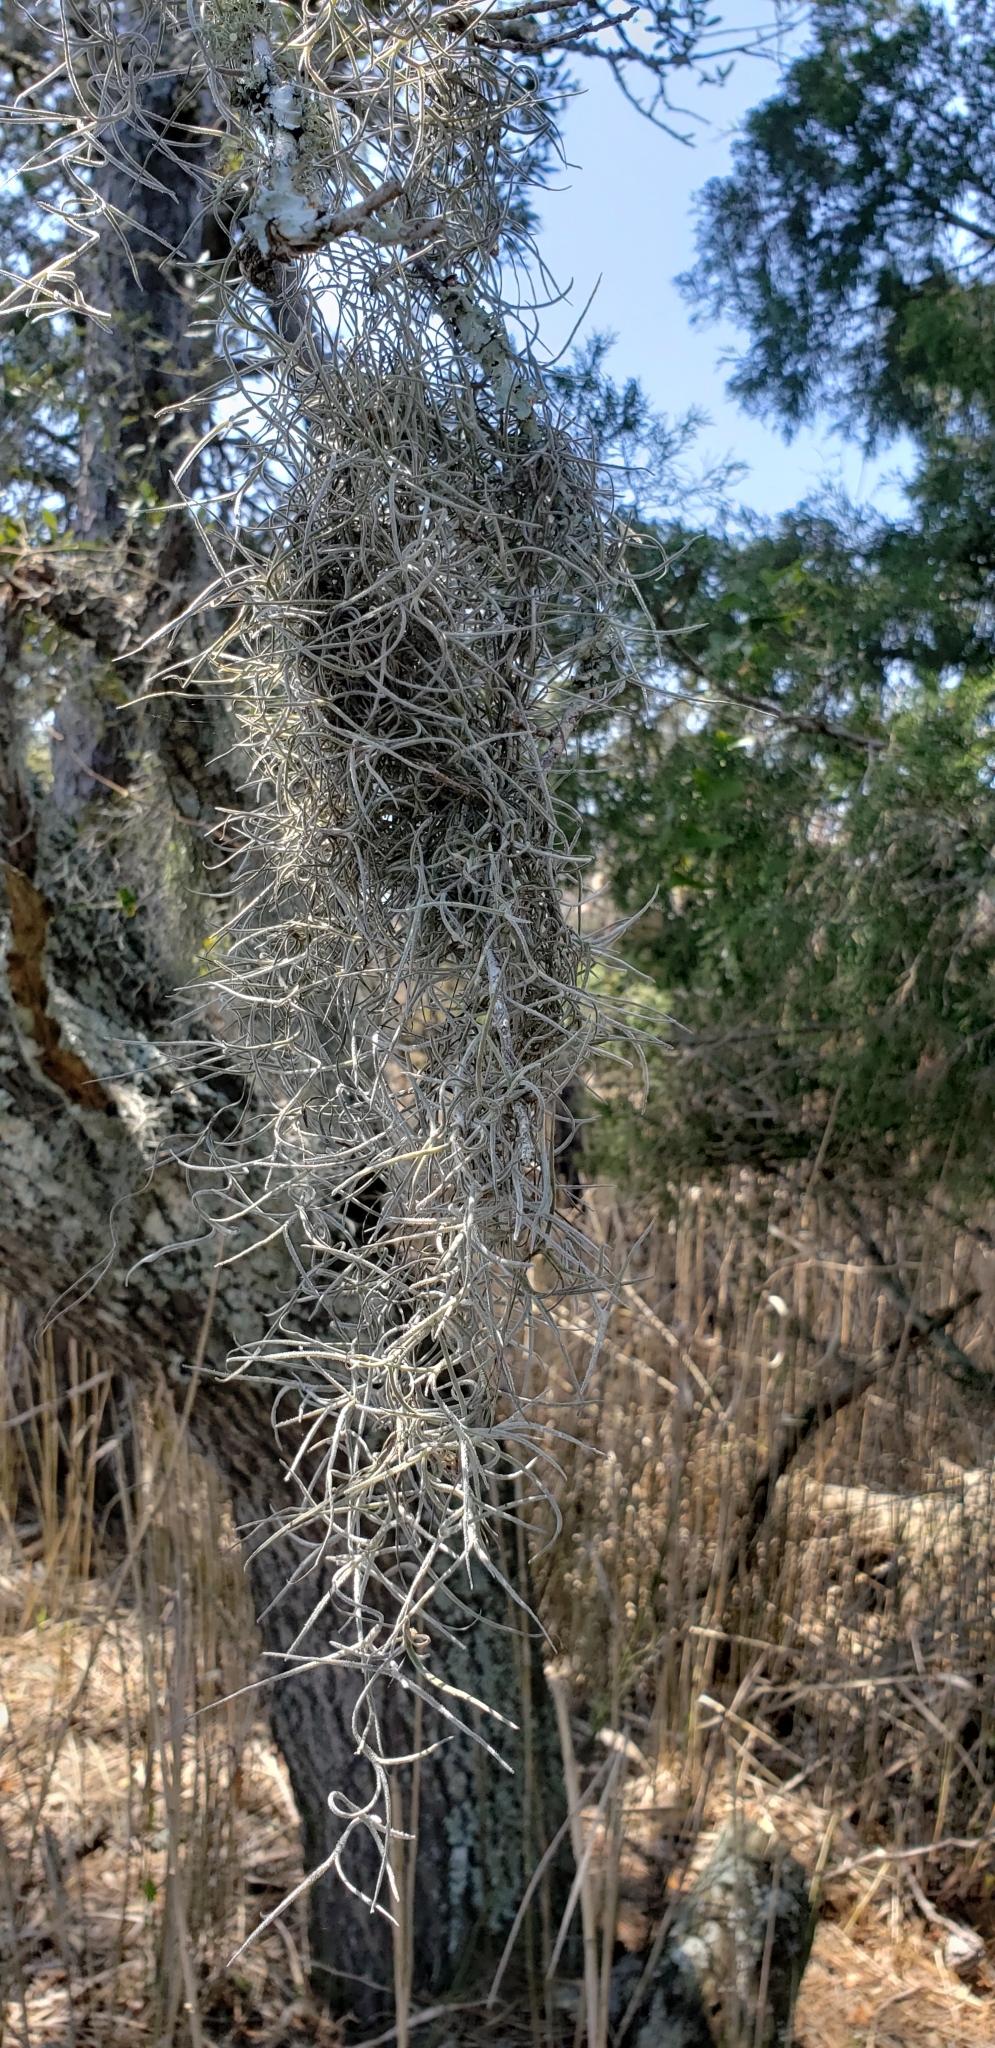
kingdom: Plantae
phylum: Tracheophyta
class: Liliopsida
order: Poales
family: Bromeliaceae
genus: Tillandsia
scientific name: Tillandsia usneoides
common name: Spanish moss
